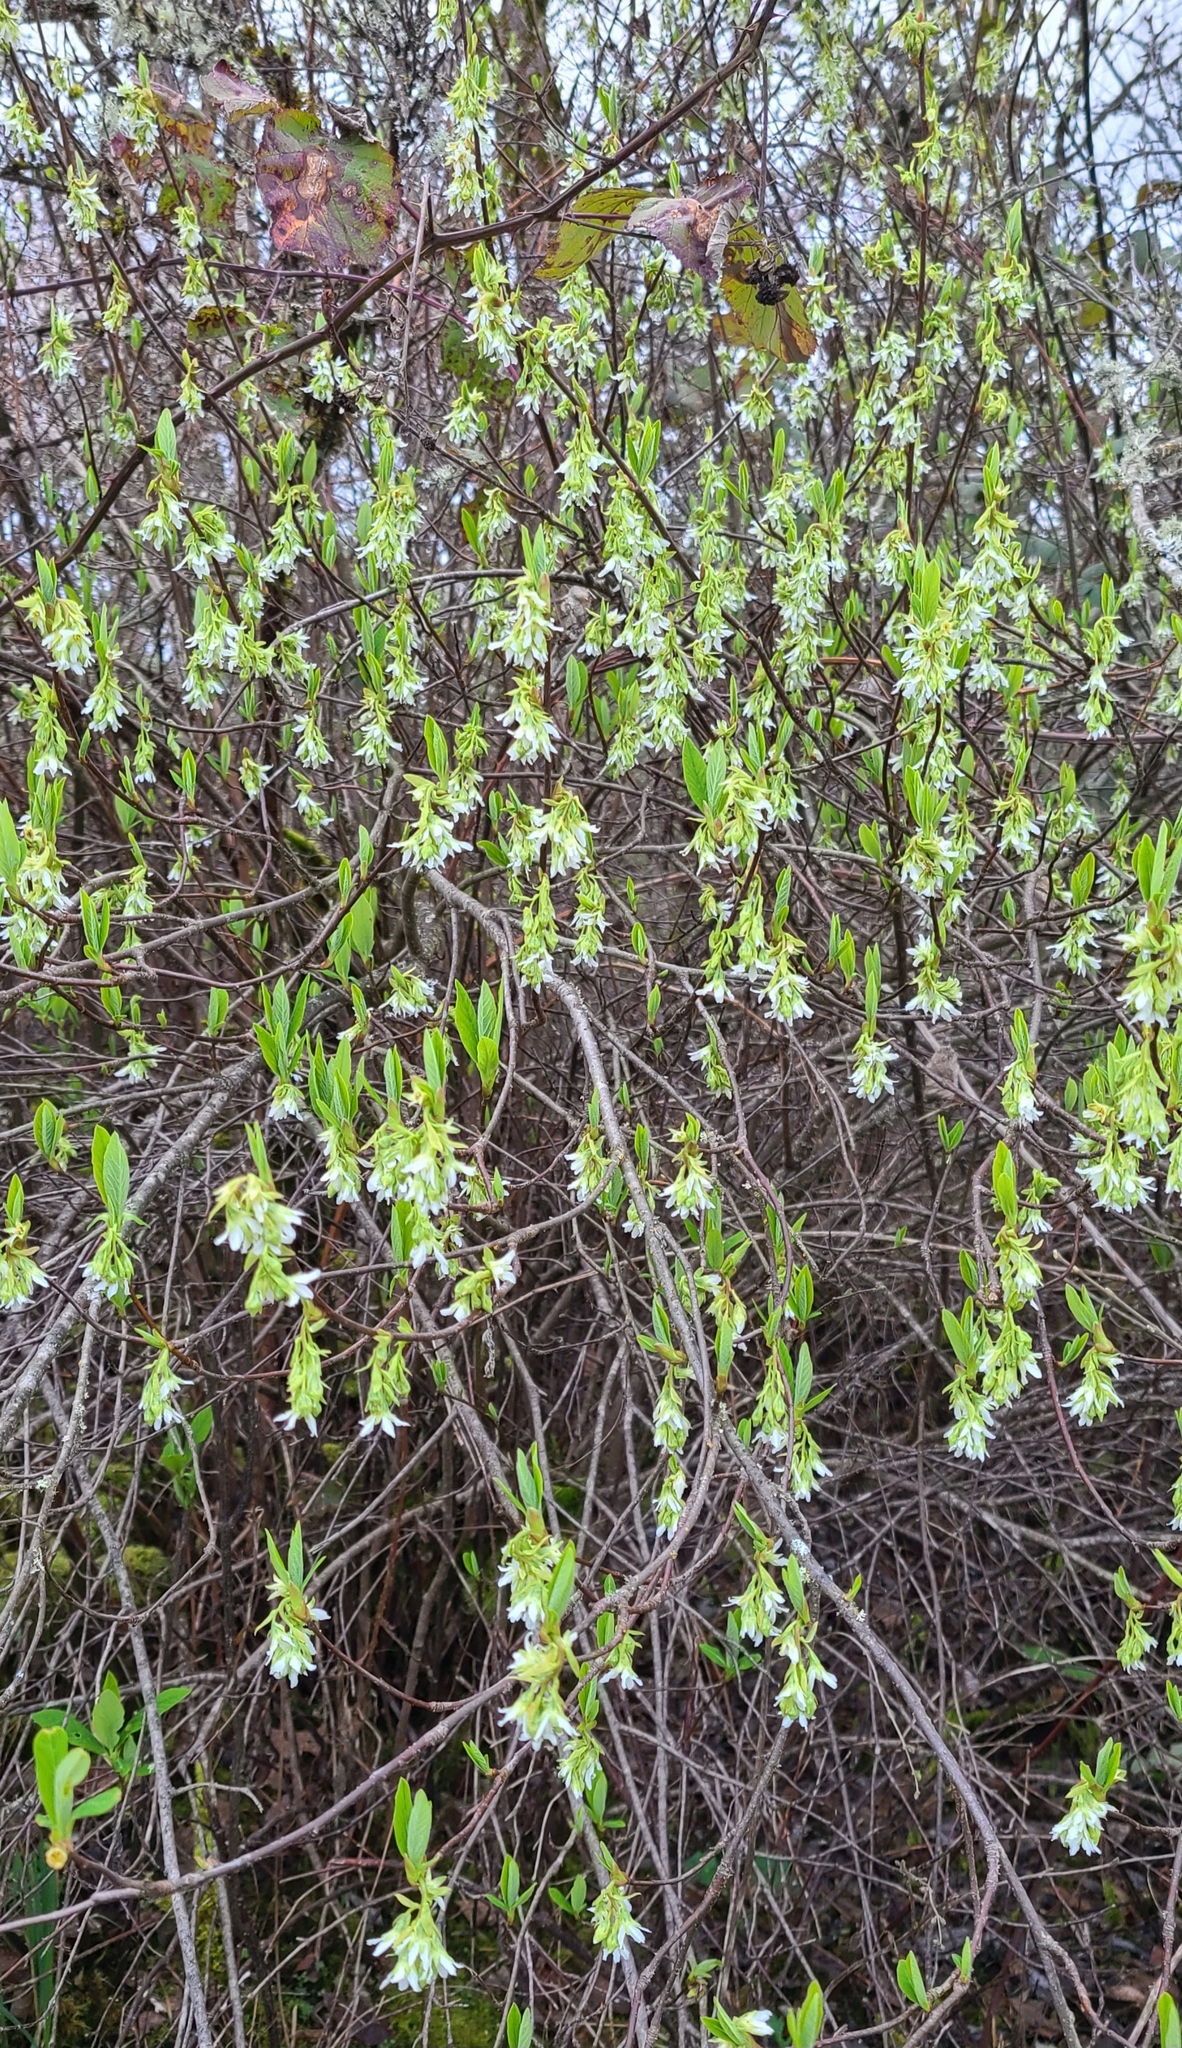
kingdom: Plantae
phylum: Tracheophyta
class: Magnoliopsida
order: Rosales
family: Rosaceae
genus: Oemleria
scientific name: Oemleria cerasiformis
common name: Osoberry
